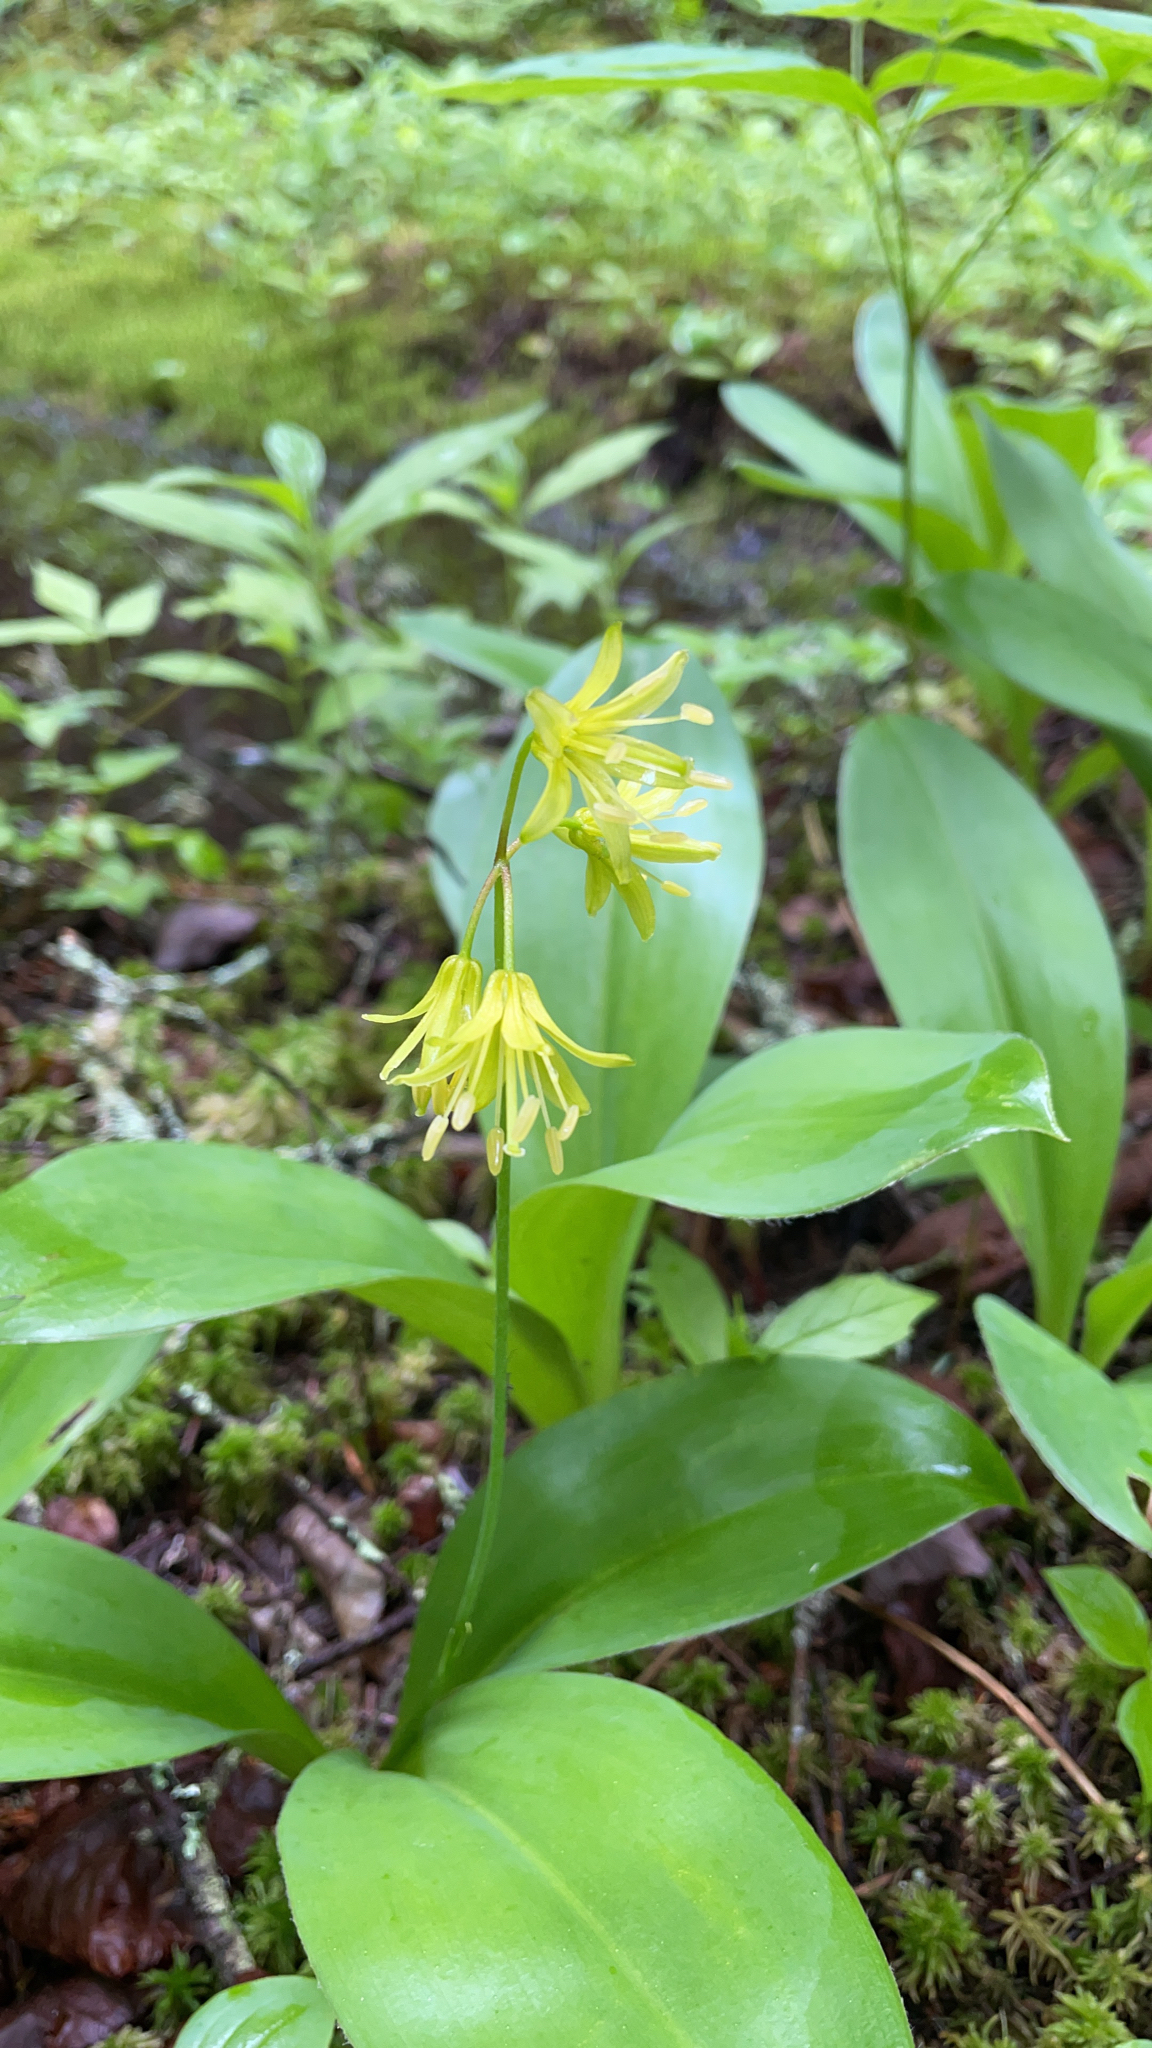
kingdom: Plantae
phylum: Tracheophyta
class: Liliopsida
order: Liliales
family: Liliaceae
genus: Clintonia
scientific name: Clintonia borealis
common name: Yellow clintonia
